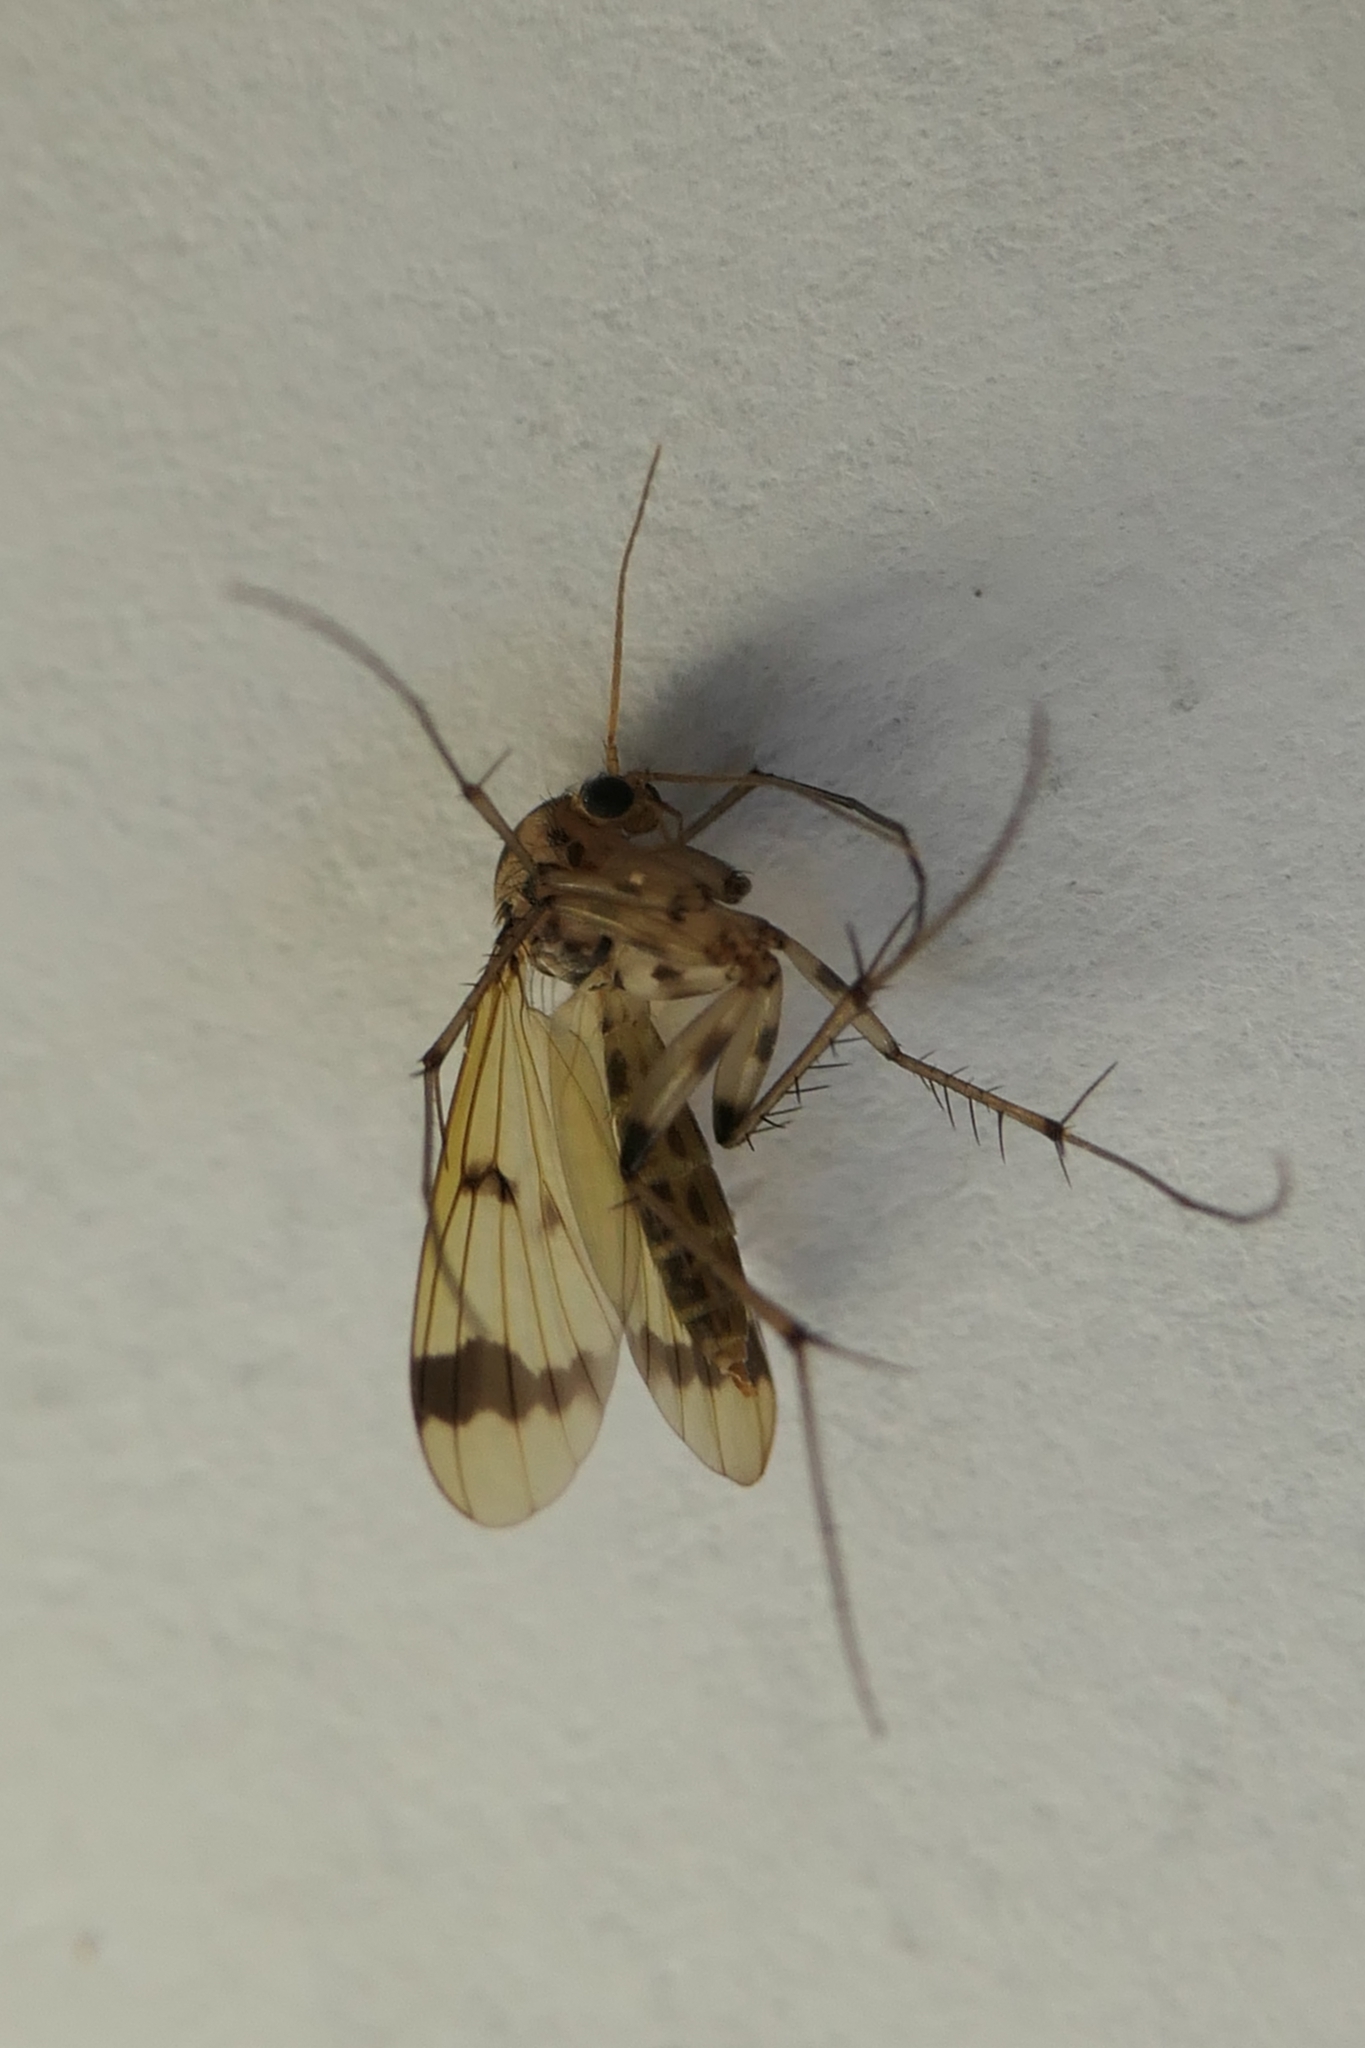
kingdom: Animalia
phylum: Arthropoda
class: Insecta
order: Diptera
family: Mycetophilidae
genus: Mycetophila
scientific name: Mycetophila latifascia
